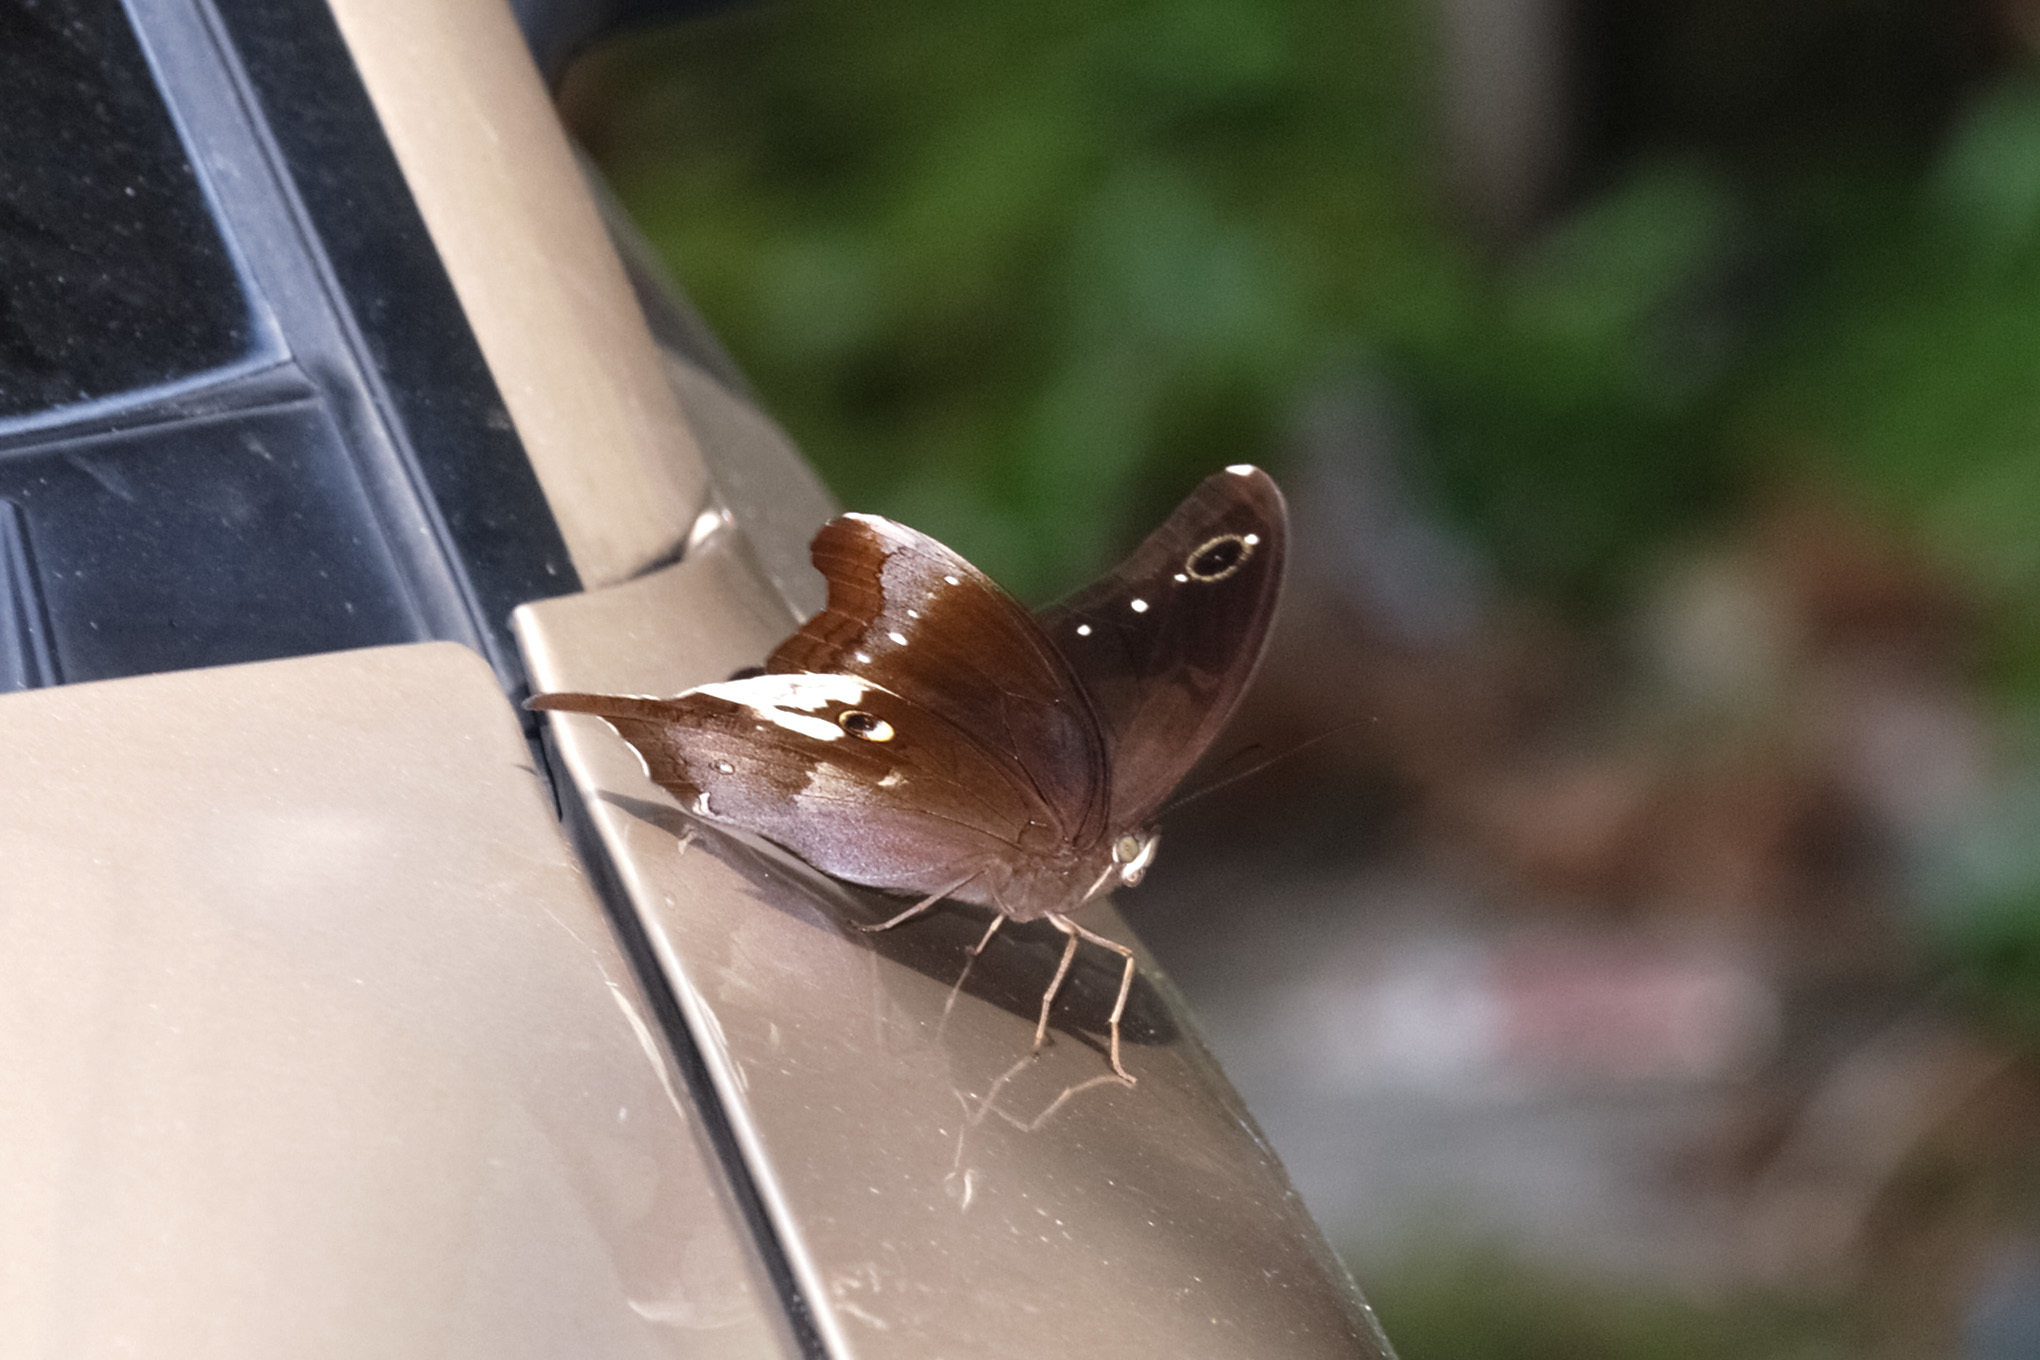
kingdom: Animalia
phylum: Arthropoda
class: Insecta
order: Lepidoptera
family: Nymphalidae
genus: Neorina
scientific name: Neorina lowii
